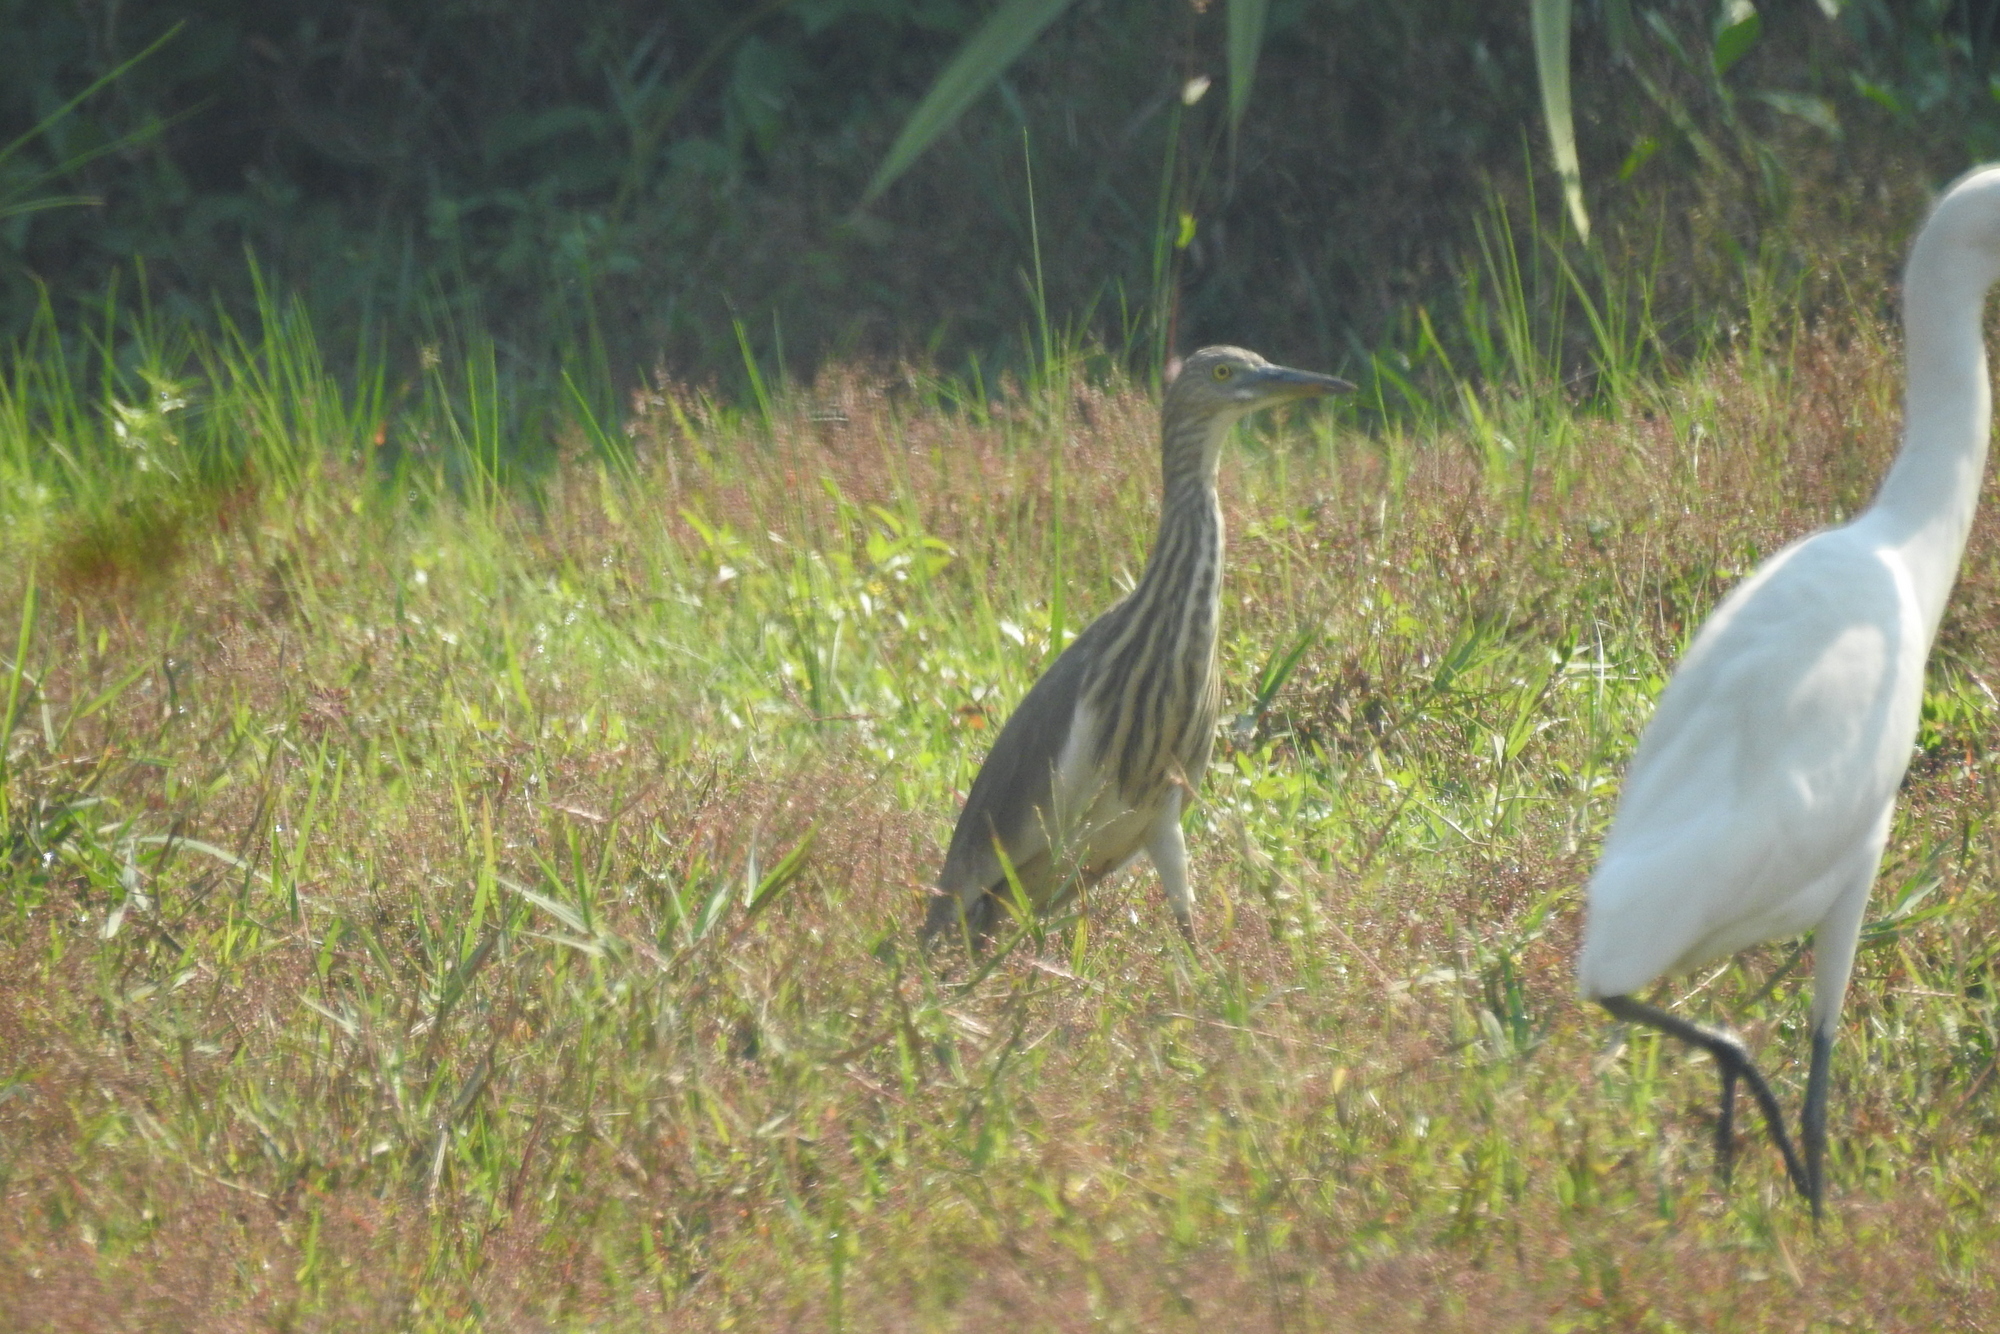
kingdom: Animalia
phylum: Chordata
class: Aves
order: Pelecaniformes
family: Ardeidae
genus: Ardeola
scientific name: Ardeola grayii
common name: Indian pond heron
